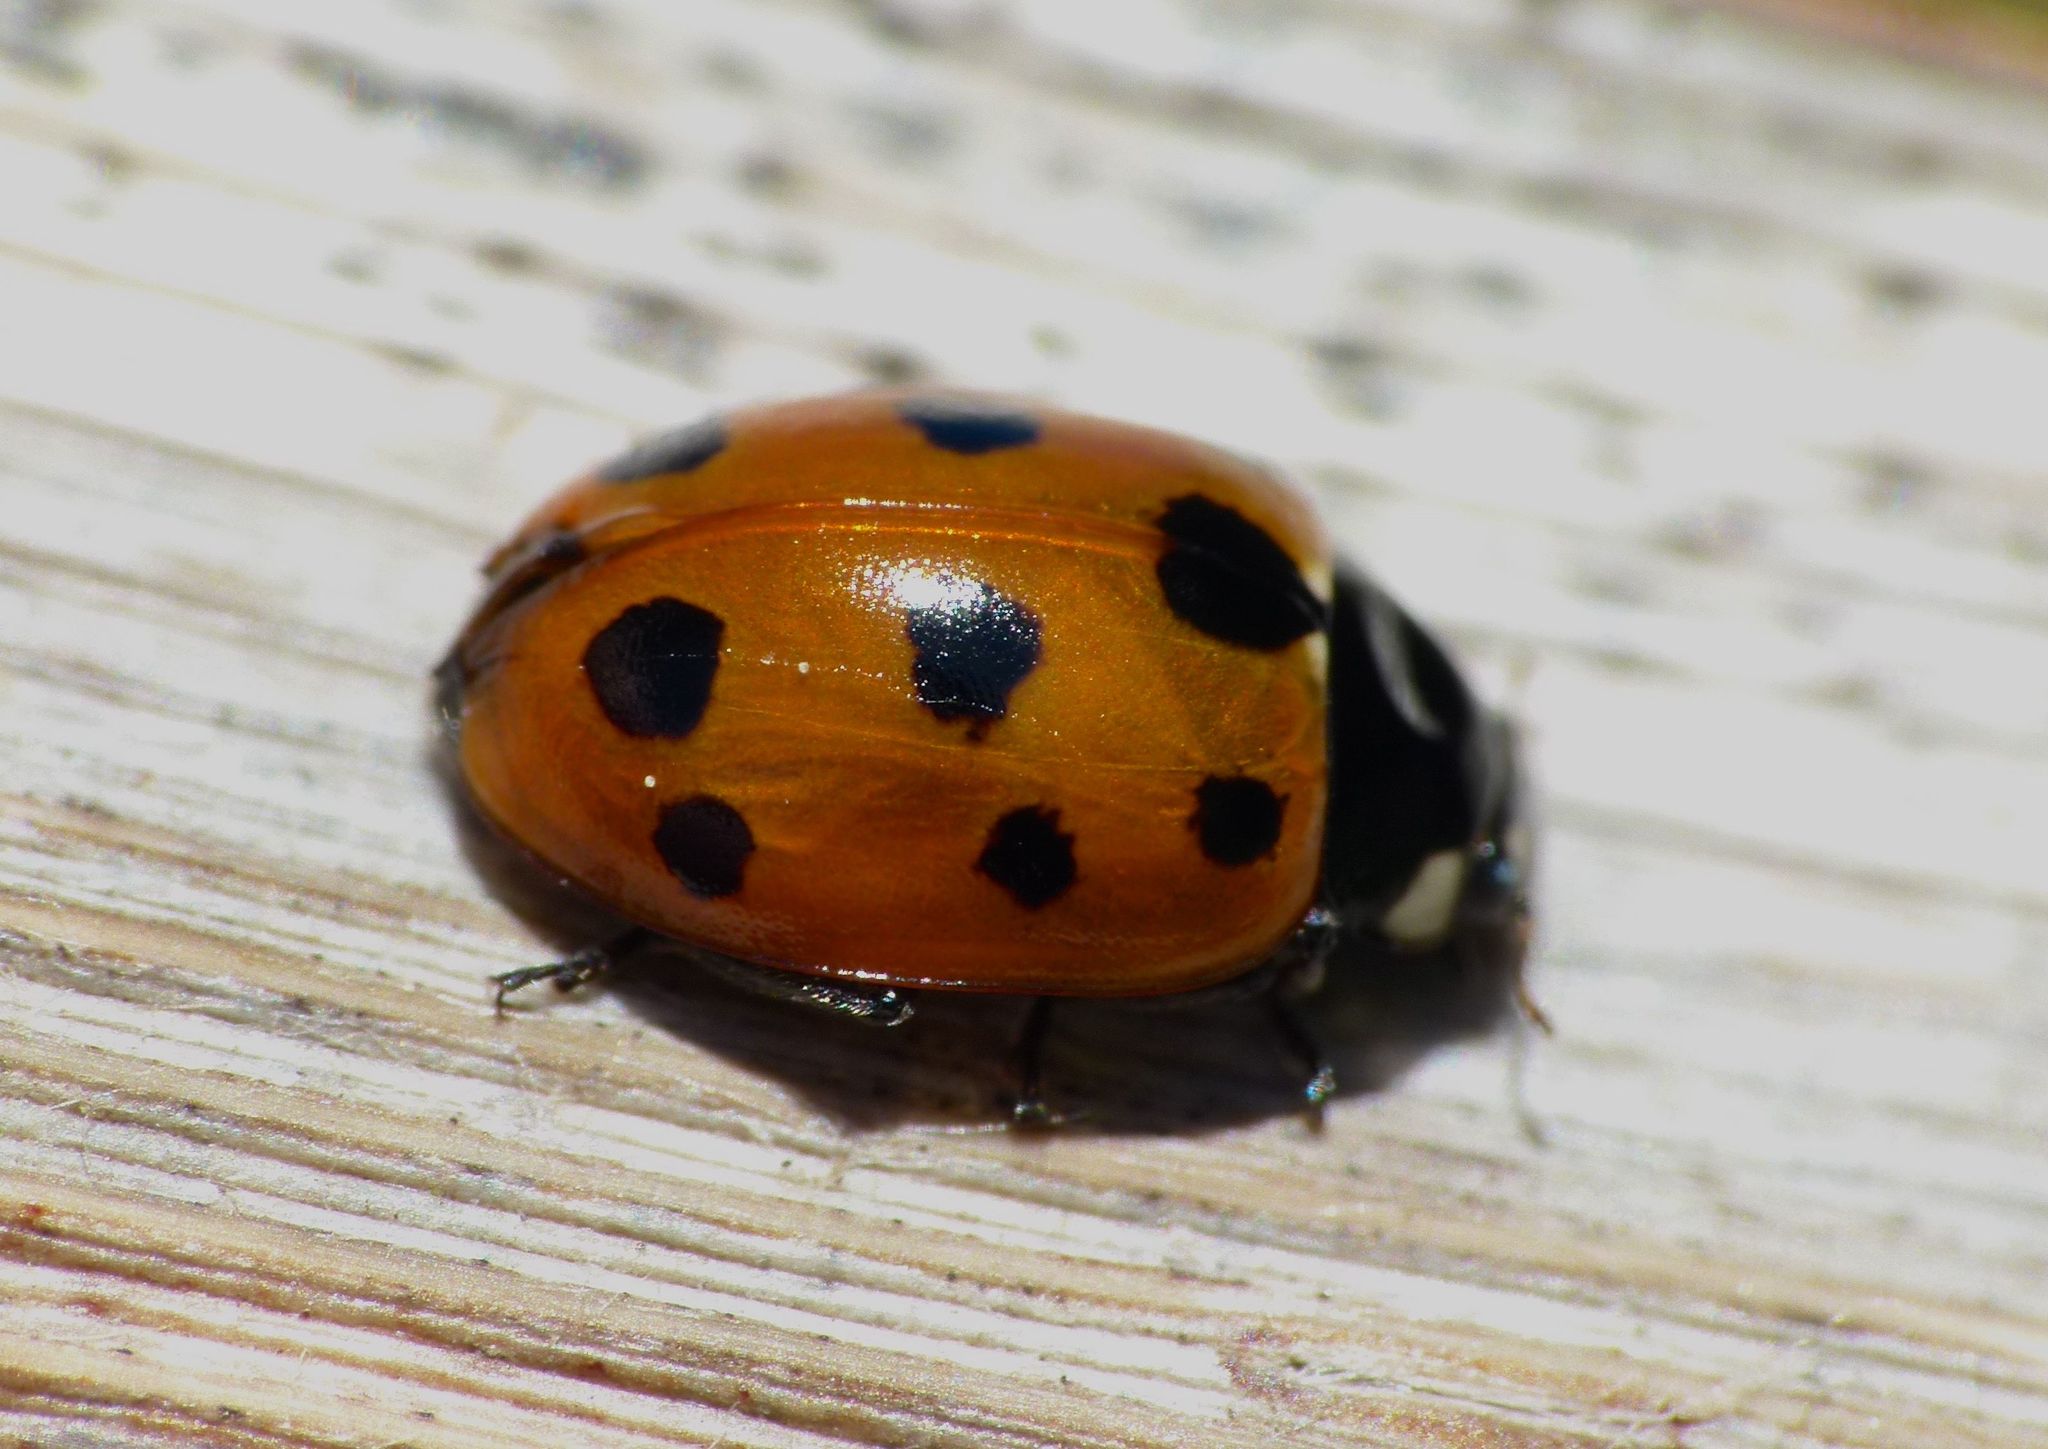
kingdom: Animalia
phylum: Arthropoda
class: Insecta
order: Coleoptera
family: Coccinellidae
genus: Coccinella
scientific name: Coccinella undecimpunctata
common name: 11-spot ladybird
